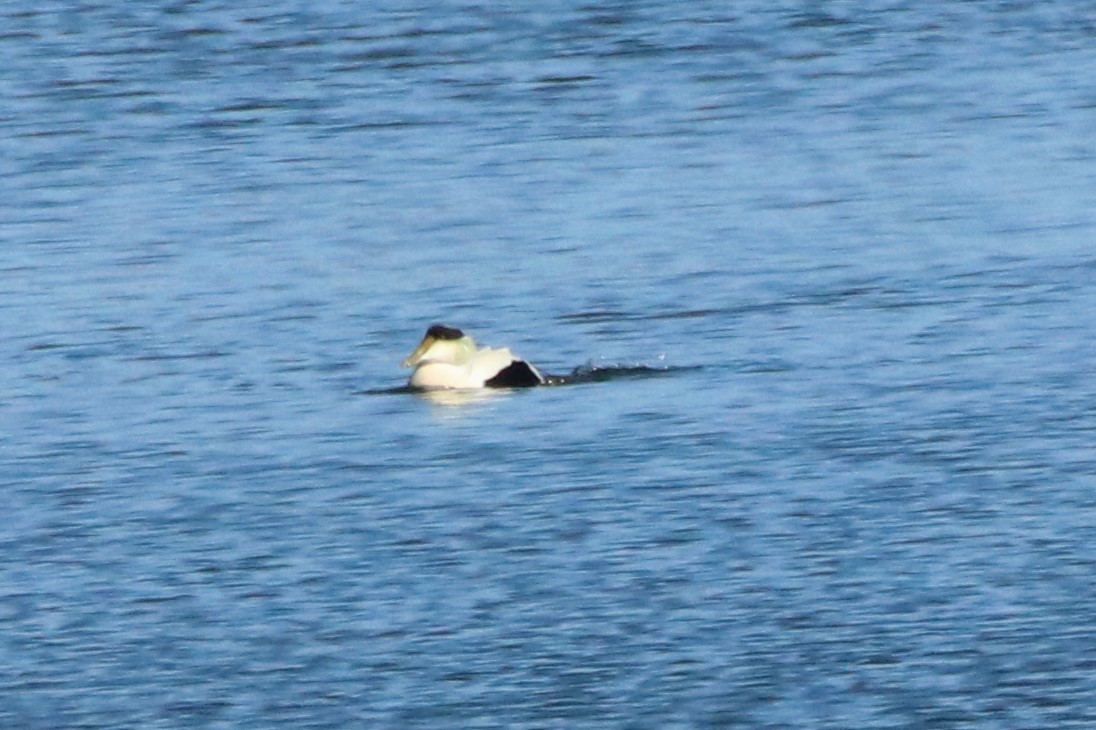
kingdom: Animalia
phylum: Chordata
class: Aves
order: Anseriformes
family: Anatidae
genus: Somateria
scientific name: Somateria mollissima
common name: Common eider
